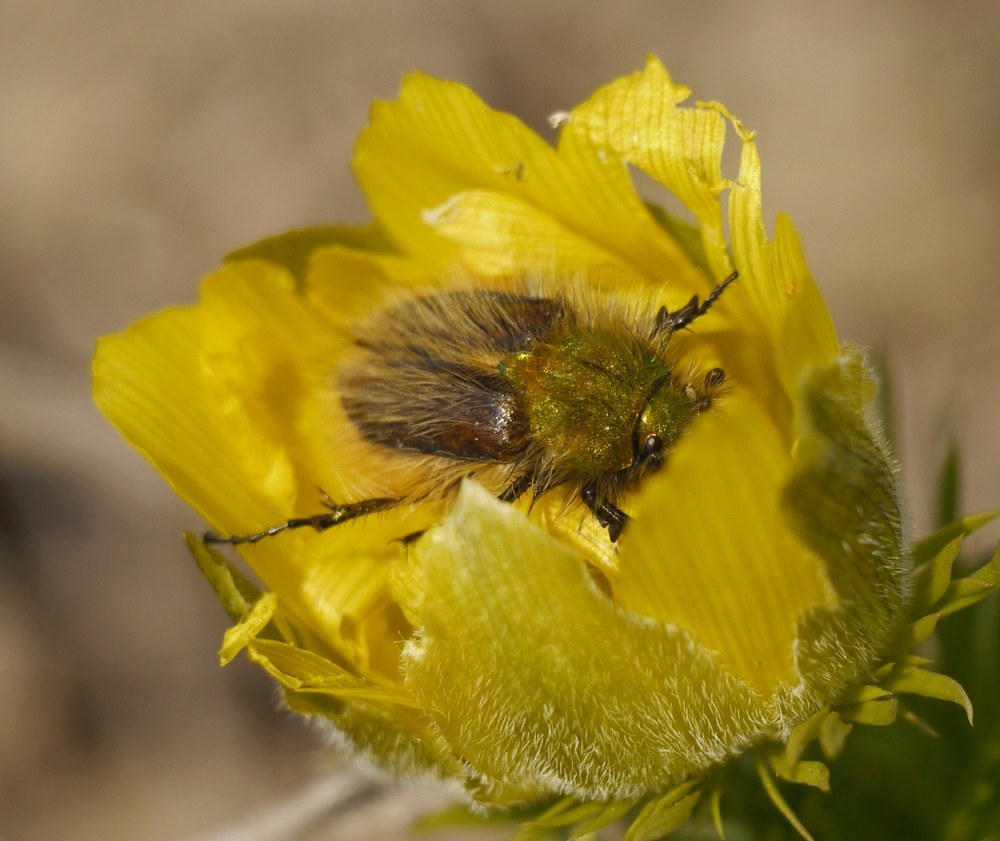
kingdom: Animalia
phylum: Arthropoda
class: Insecta
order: Coleoptera
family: Glaphyridae
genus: Pygopleurus
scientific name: Pygopleurus vulpes
